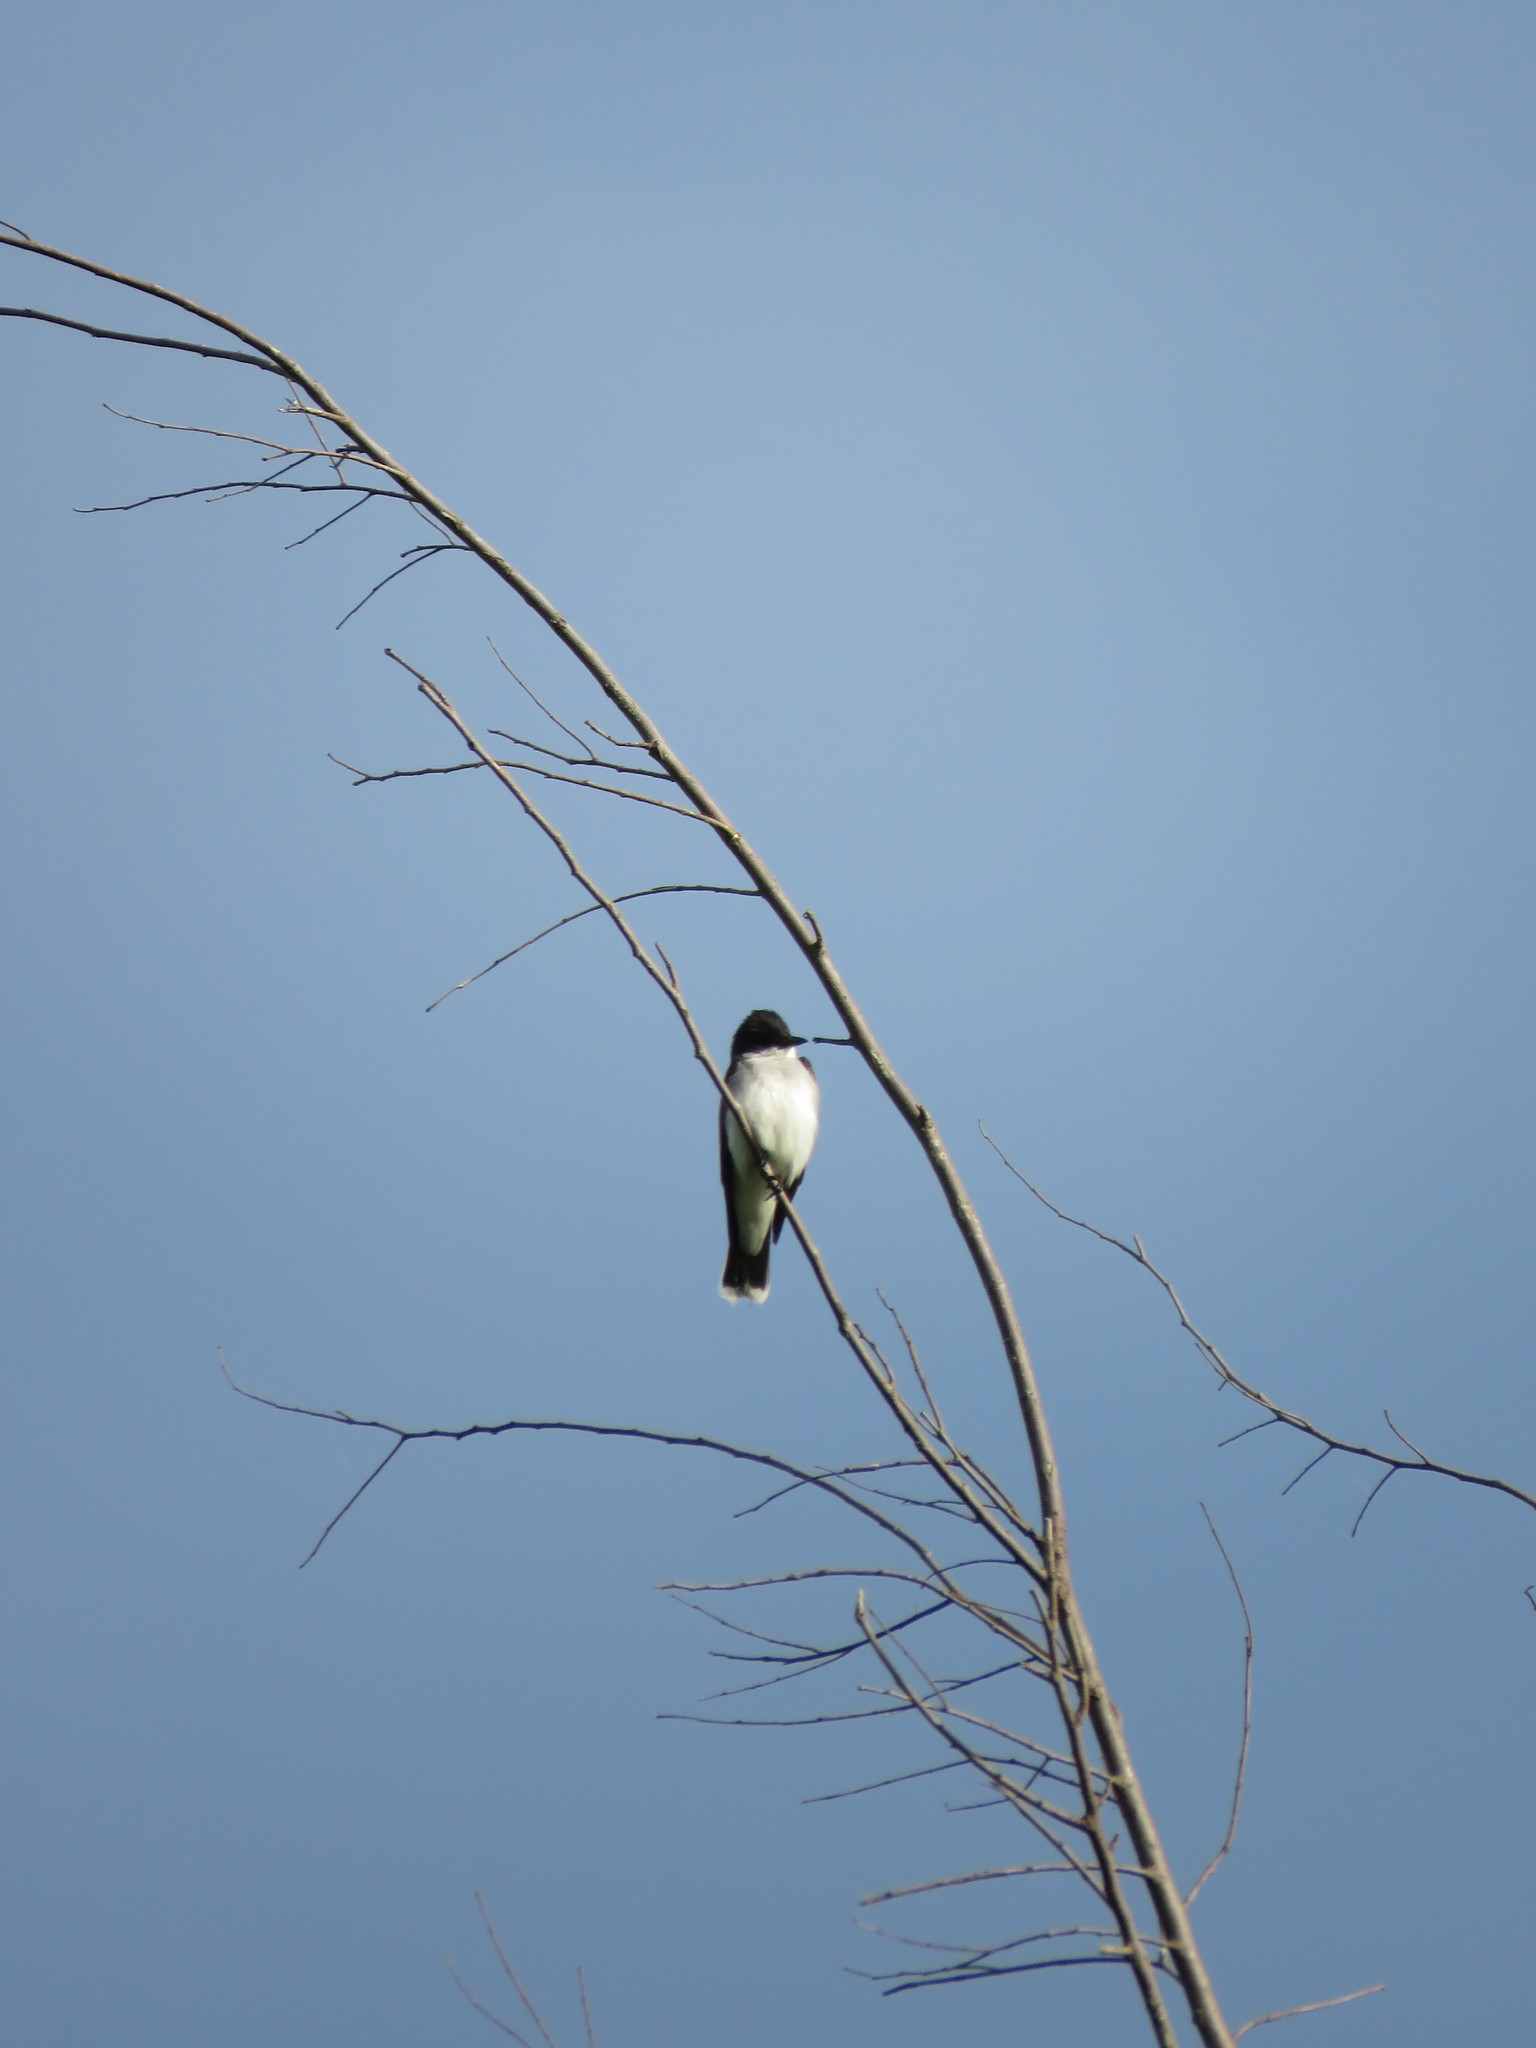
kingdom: Animalia
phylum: Chordata
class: Aves
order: Passeriformes
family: Tyrannidae
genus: Tyrannus
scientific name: Tyrannus tyrannus
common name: Eastern kingbird
